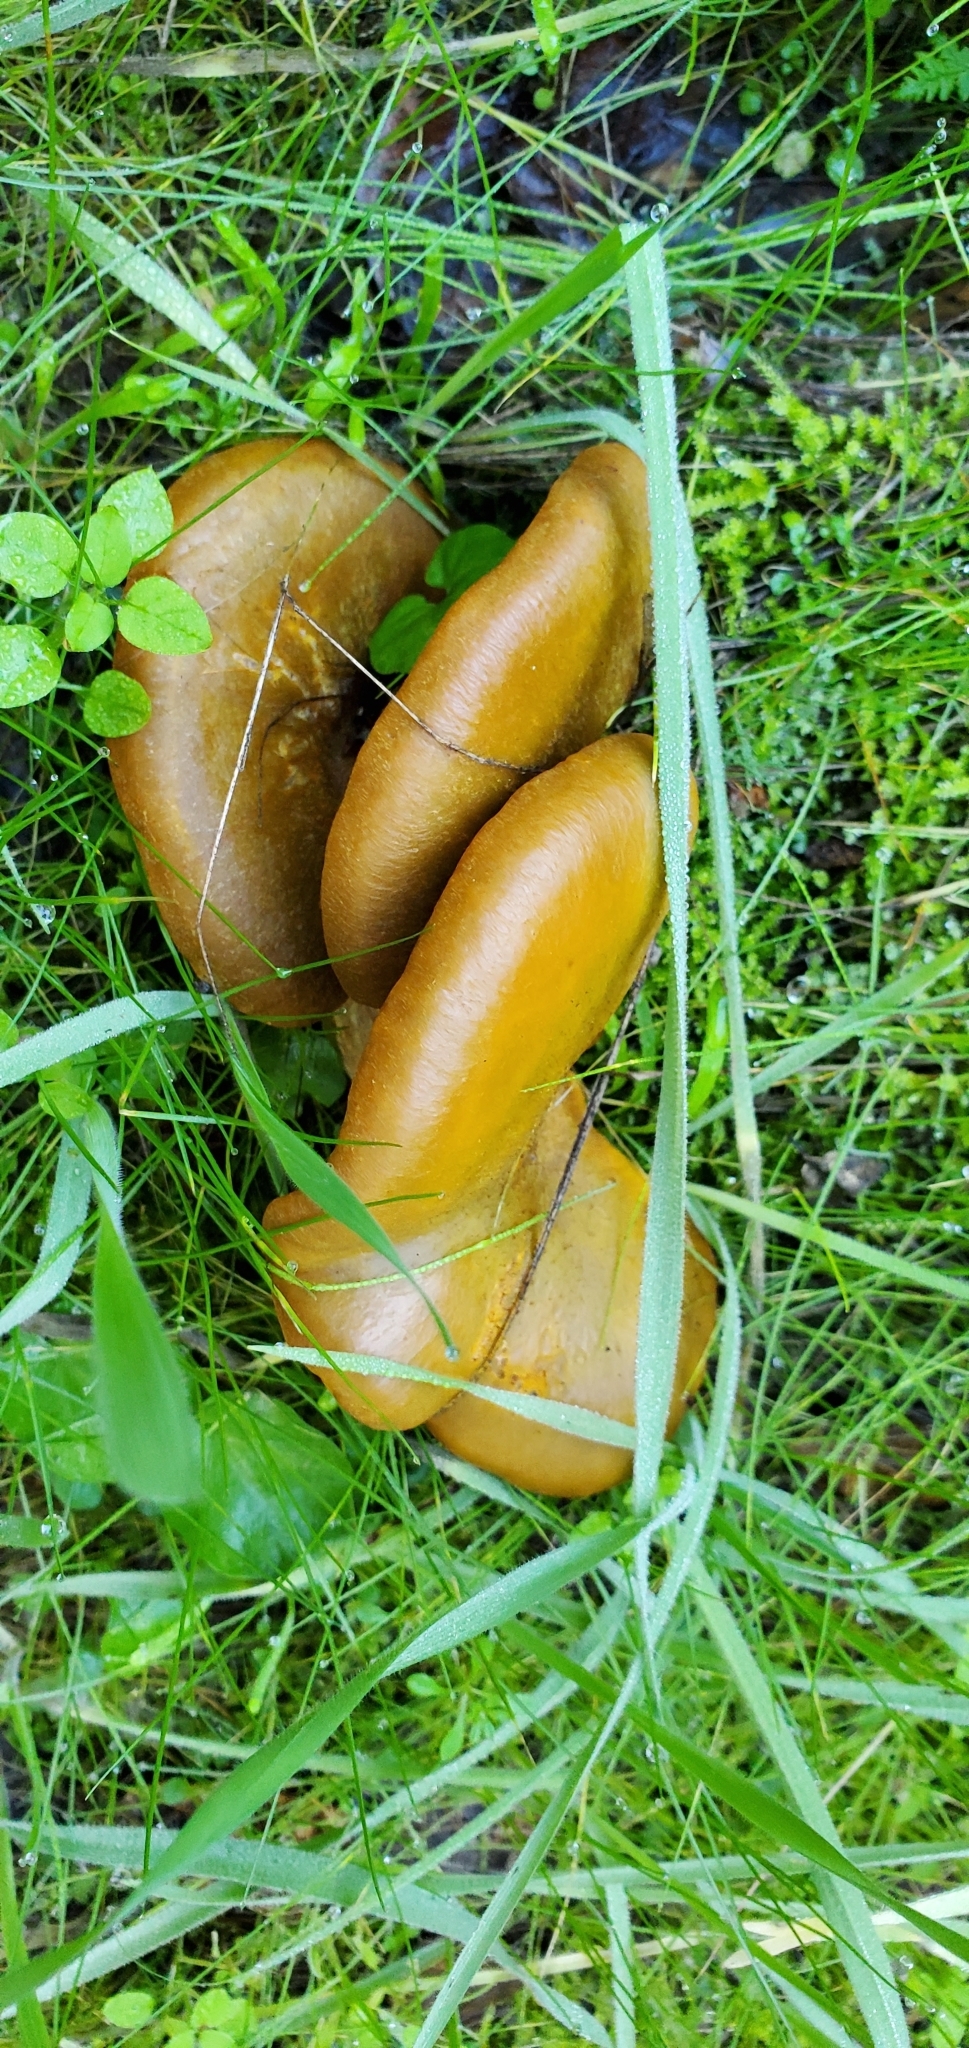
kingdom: Fungi
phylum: Basidiomycota
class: Agaricomycetes
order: Agaricales
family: Omphalotaceae
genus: Omphalotus
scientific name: Omphalotus olivascens
